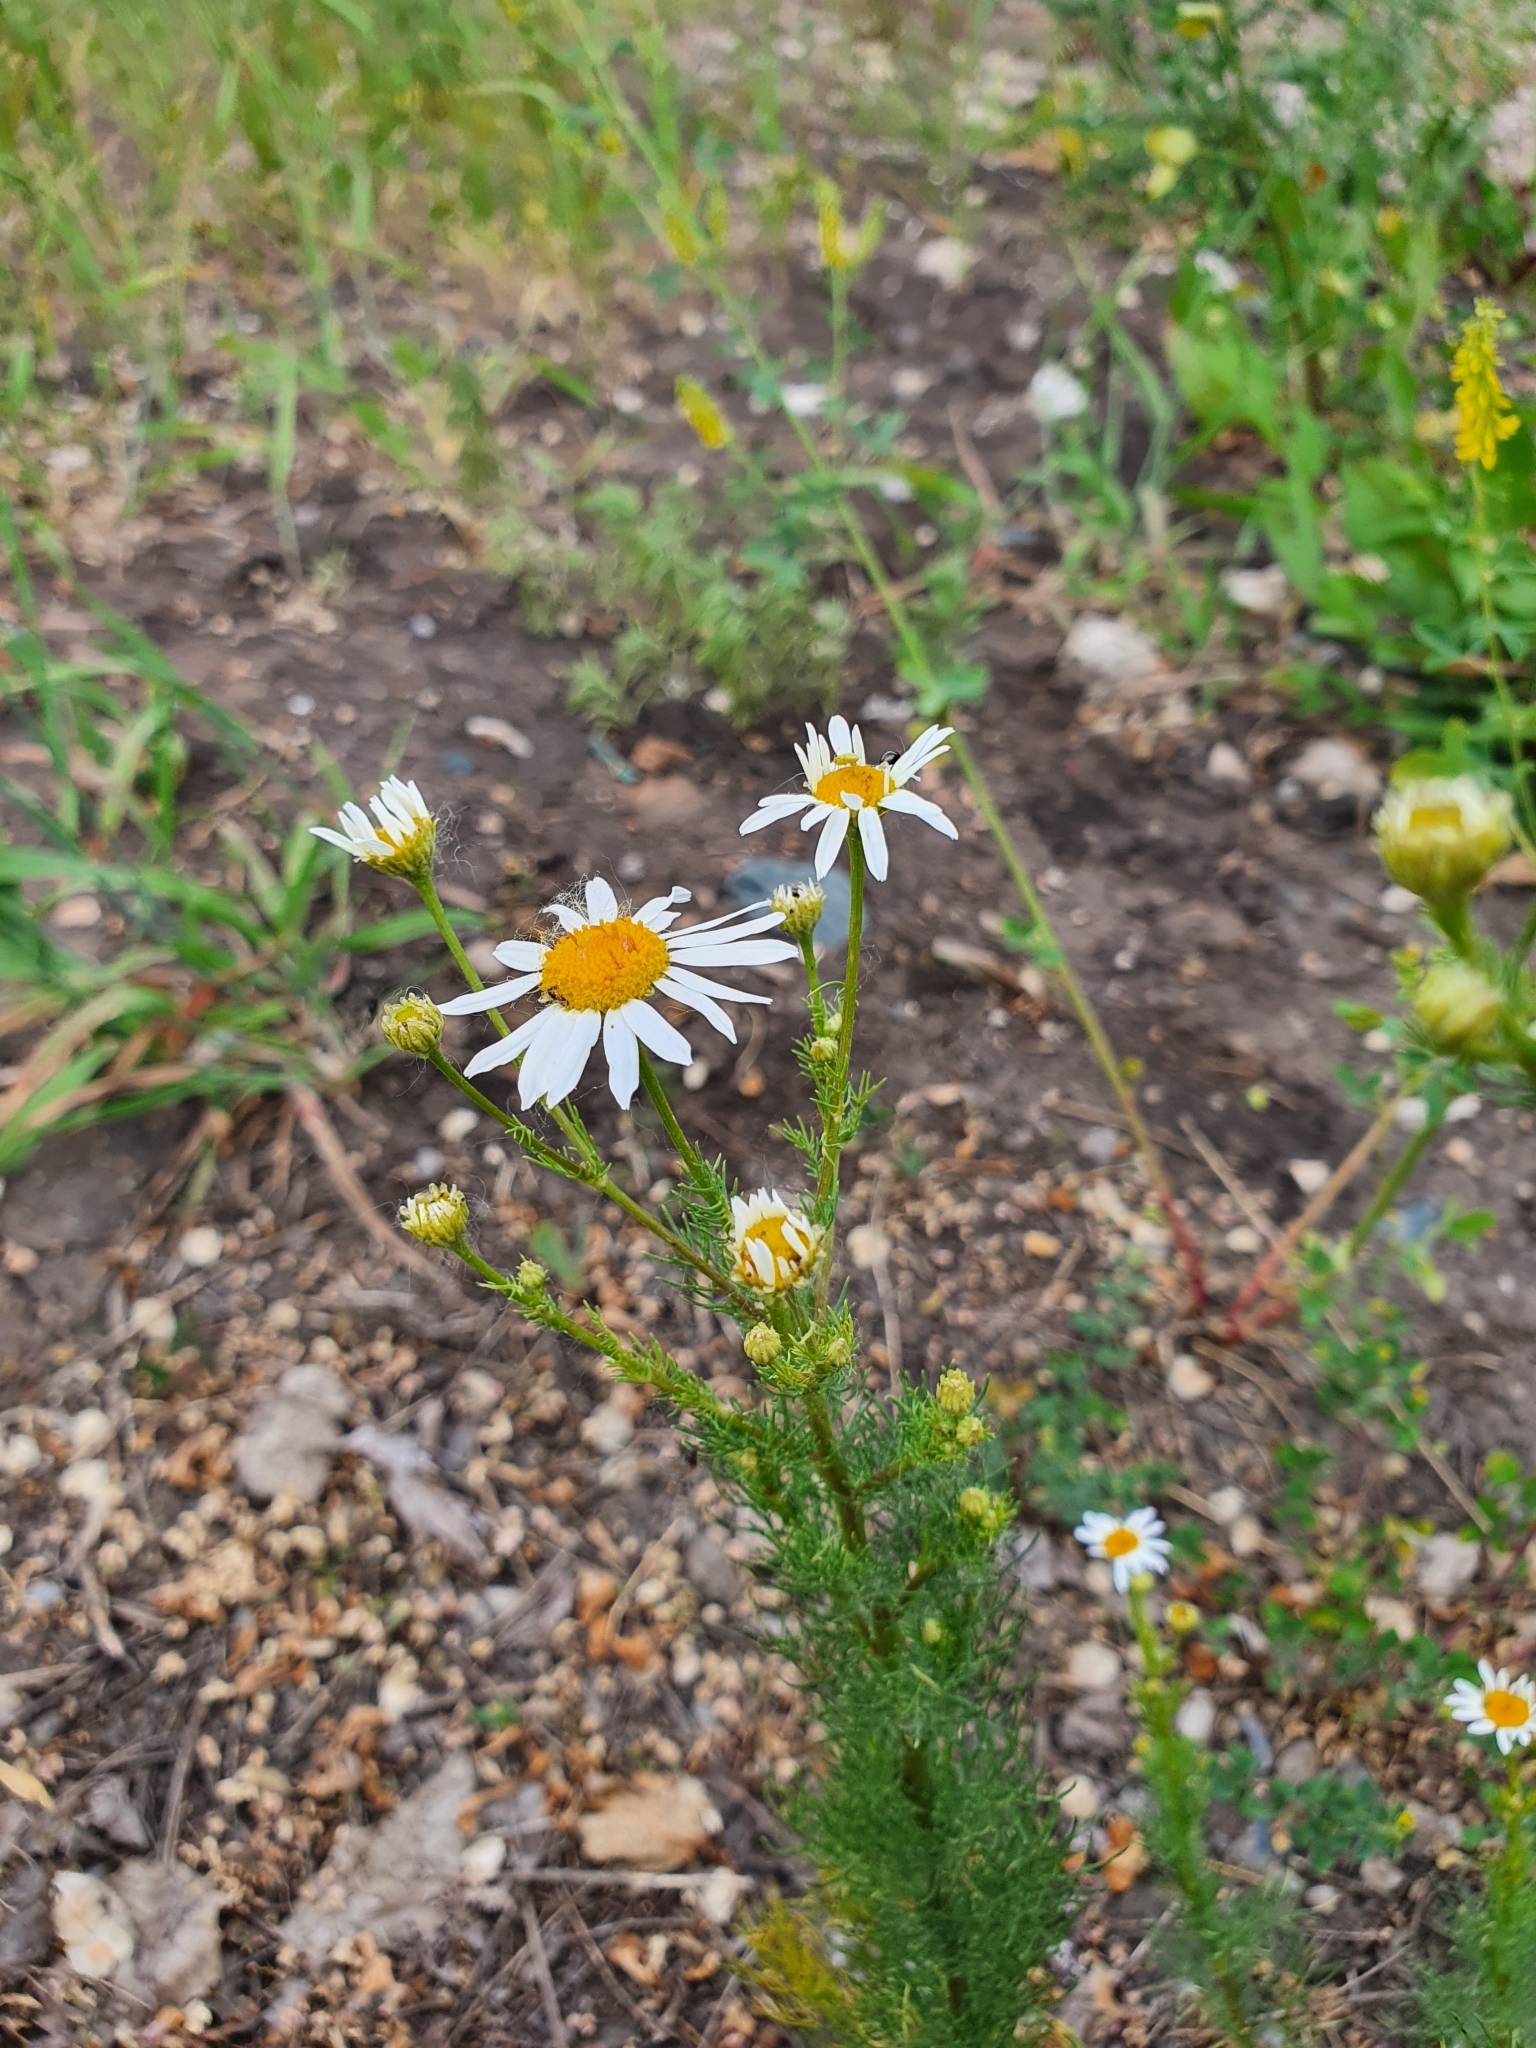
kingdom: Plantae
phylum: Tracheophyta
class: Magnoliopsida
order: Asterales
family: Asteraceae
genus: Tripleurospermum
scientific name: Tripleurospermum inodorum
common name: Scentless mayweed
